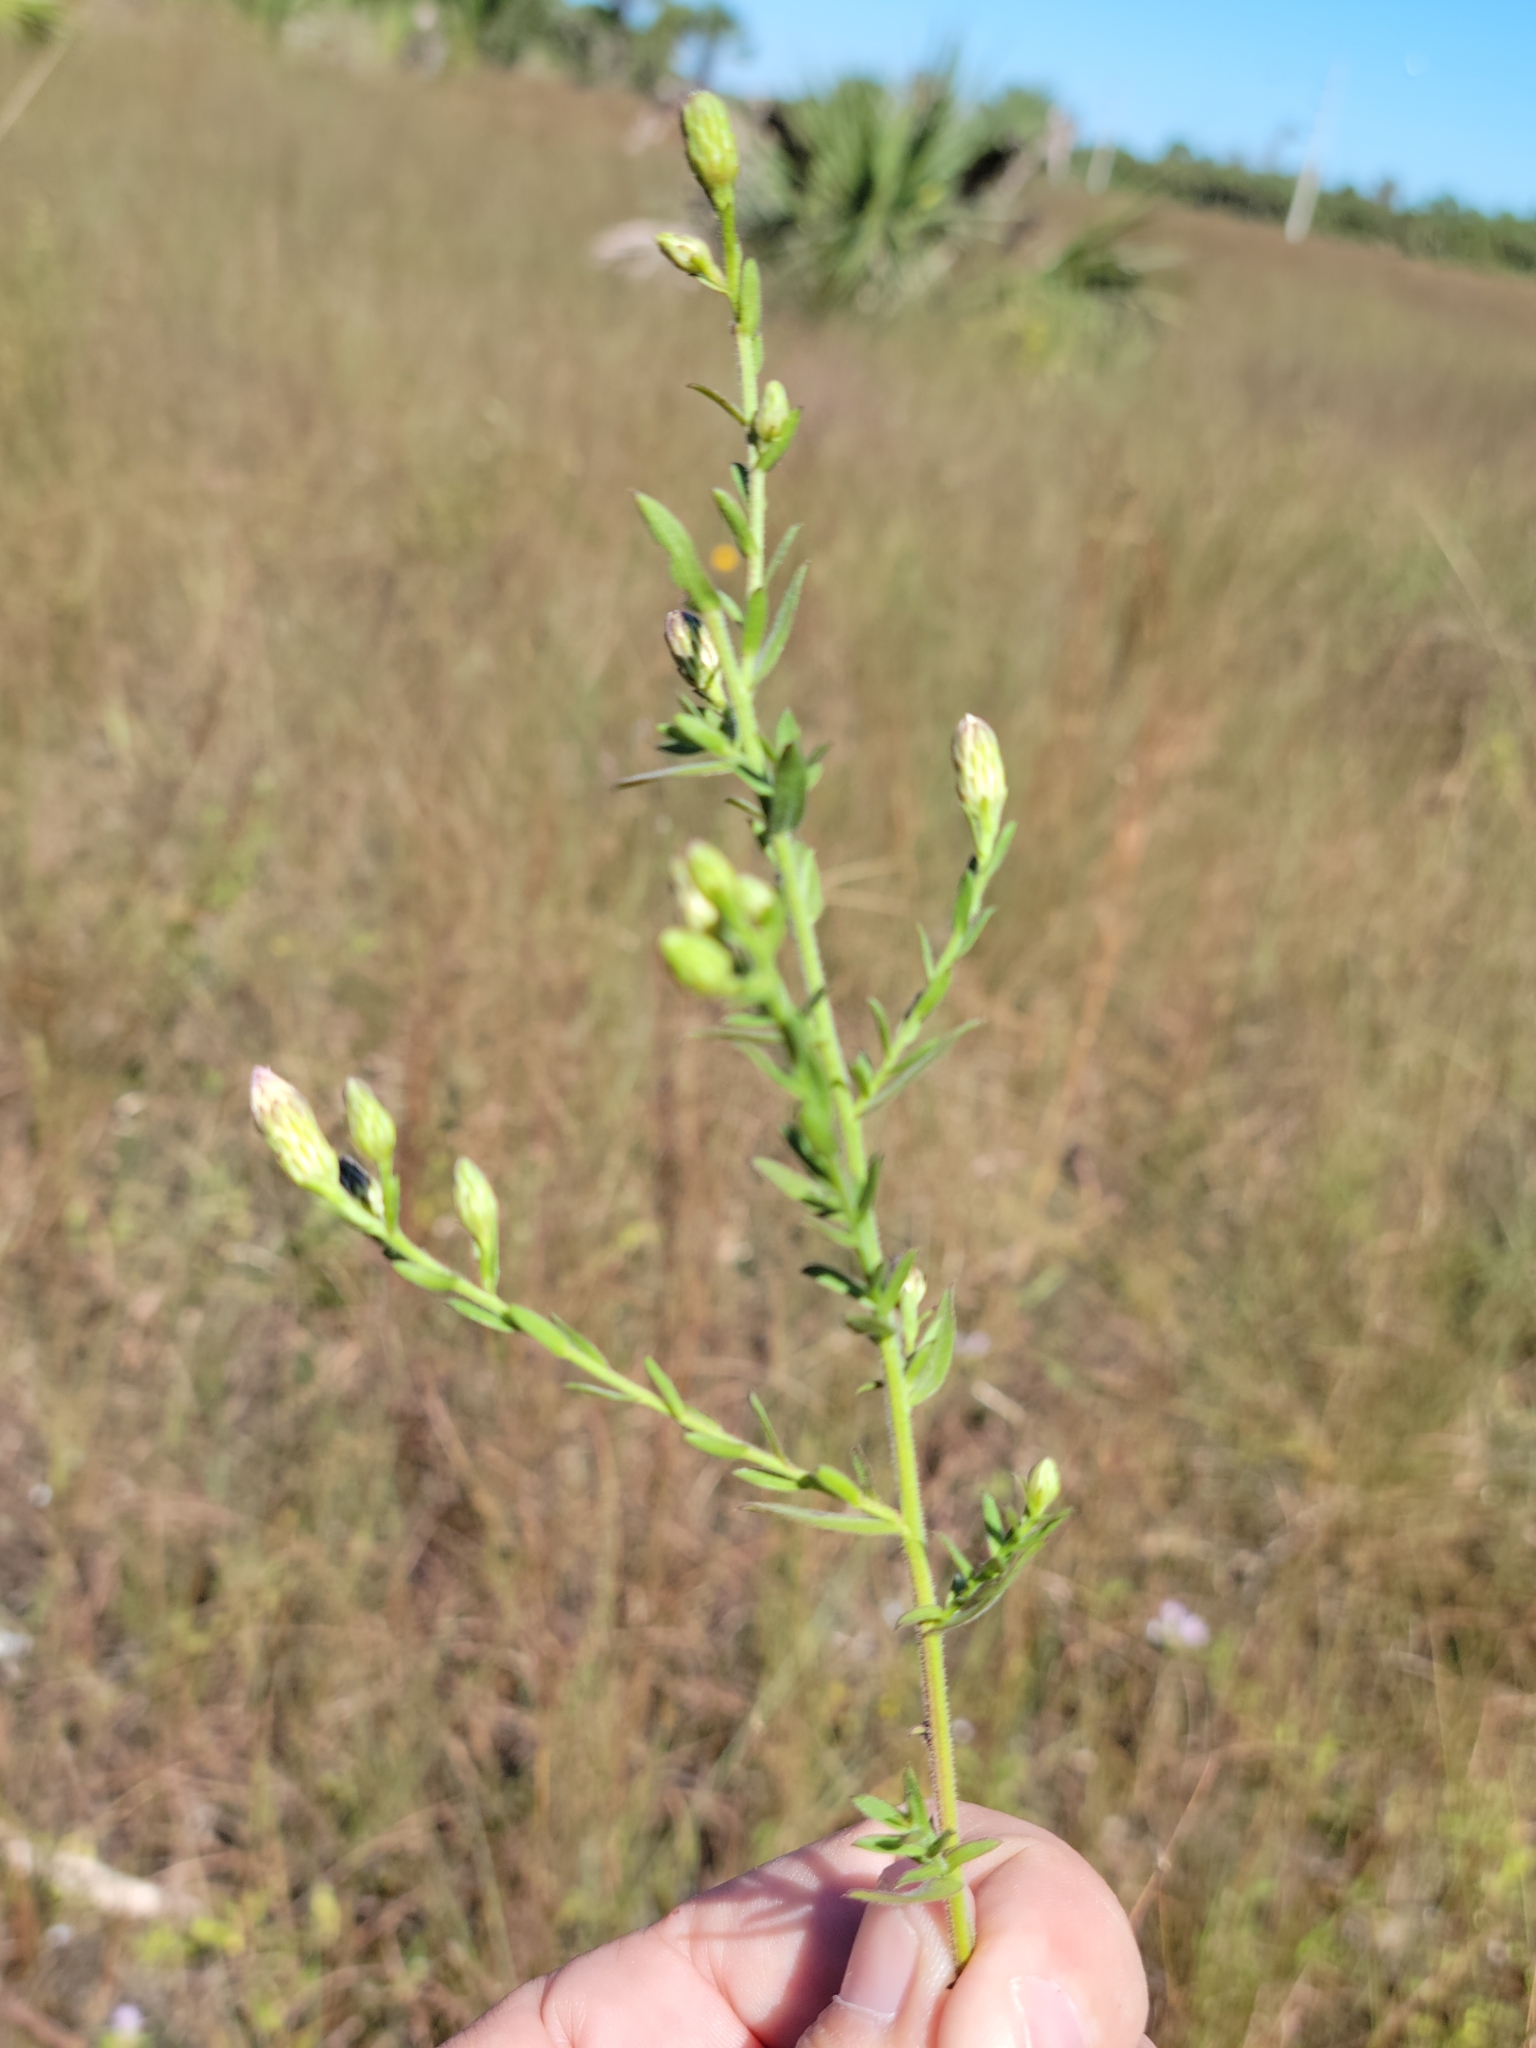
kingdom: Plantae
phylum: Tracheophyta
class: Magnoliopsida
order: Asterales
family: Asteraceae
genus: Symphyotrichum
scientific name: Symphyotrichum fontinale
